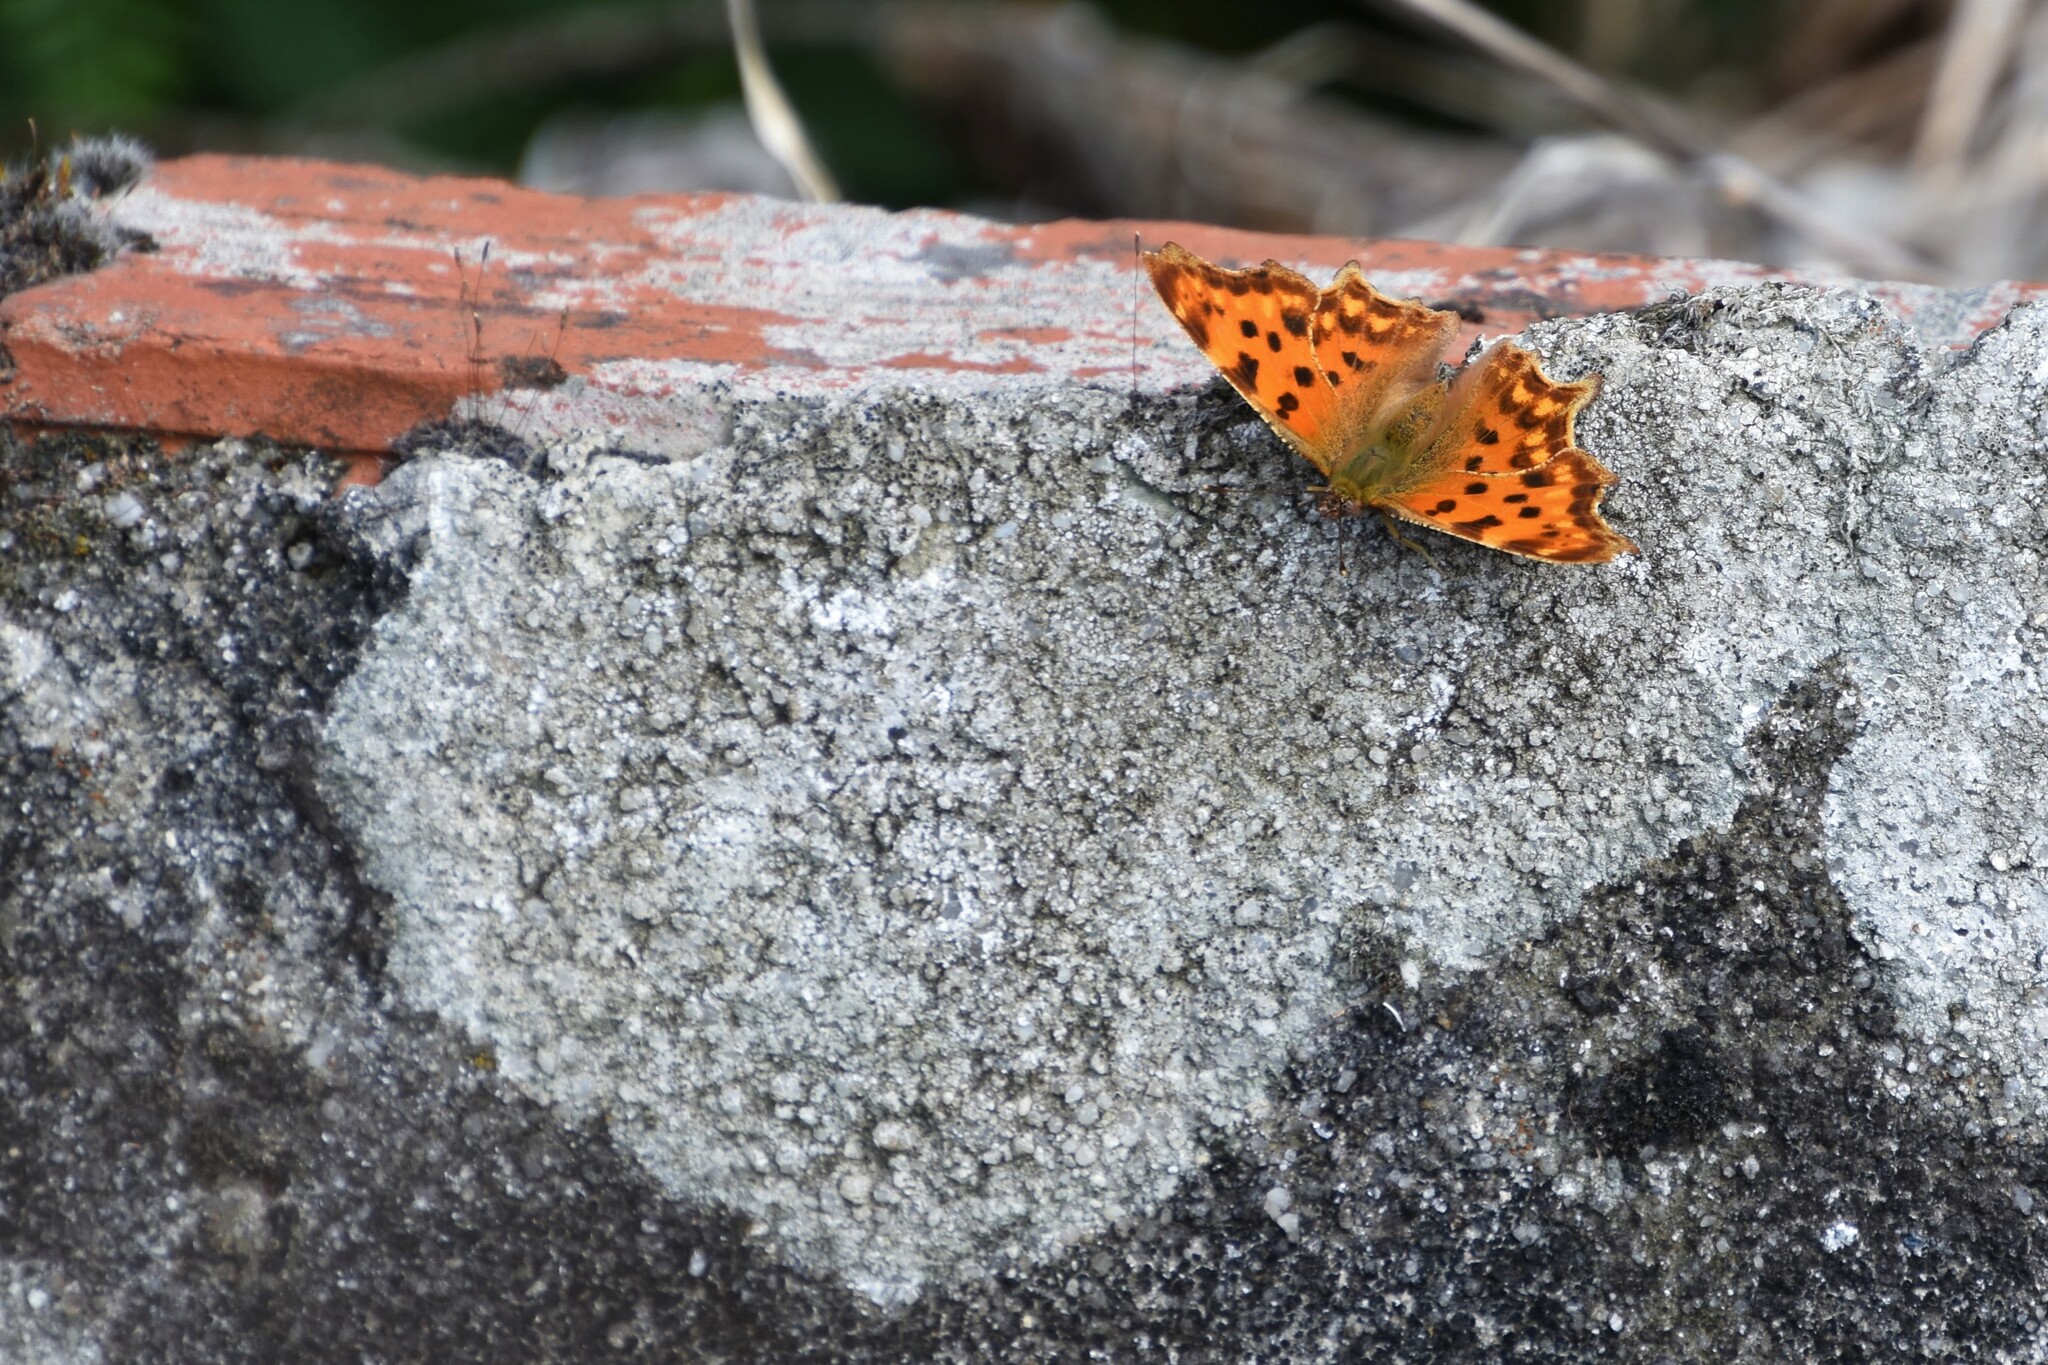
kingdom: Animalia
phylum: Arthropoda
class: Insecta
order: Lepidoptera
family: Nymphalidae
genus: Polygonia
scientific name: Polygonia c-album
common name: Comma
